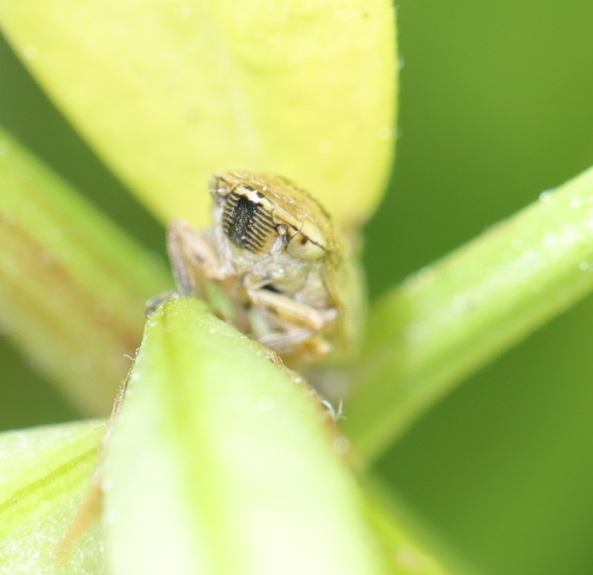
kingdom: Animalia
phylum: Arthropoda
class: Insecta
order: Hemiptera
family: Aphrophoridae
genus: Philaenus
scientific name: Philaenus spumarius
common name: Meadow spittlebug
